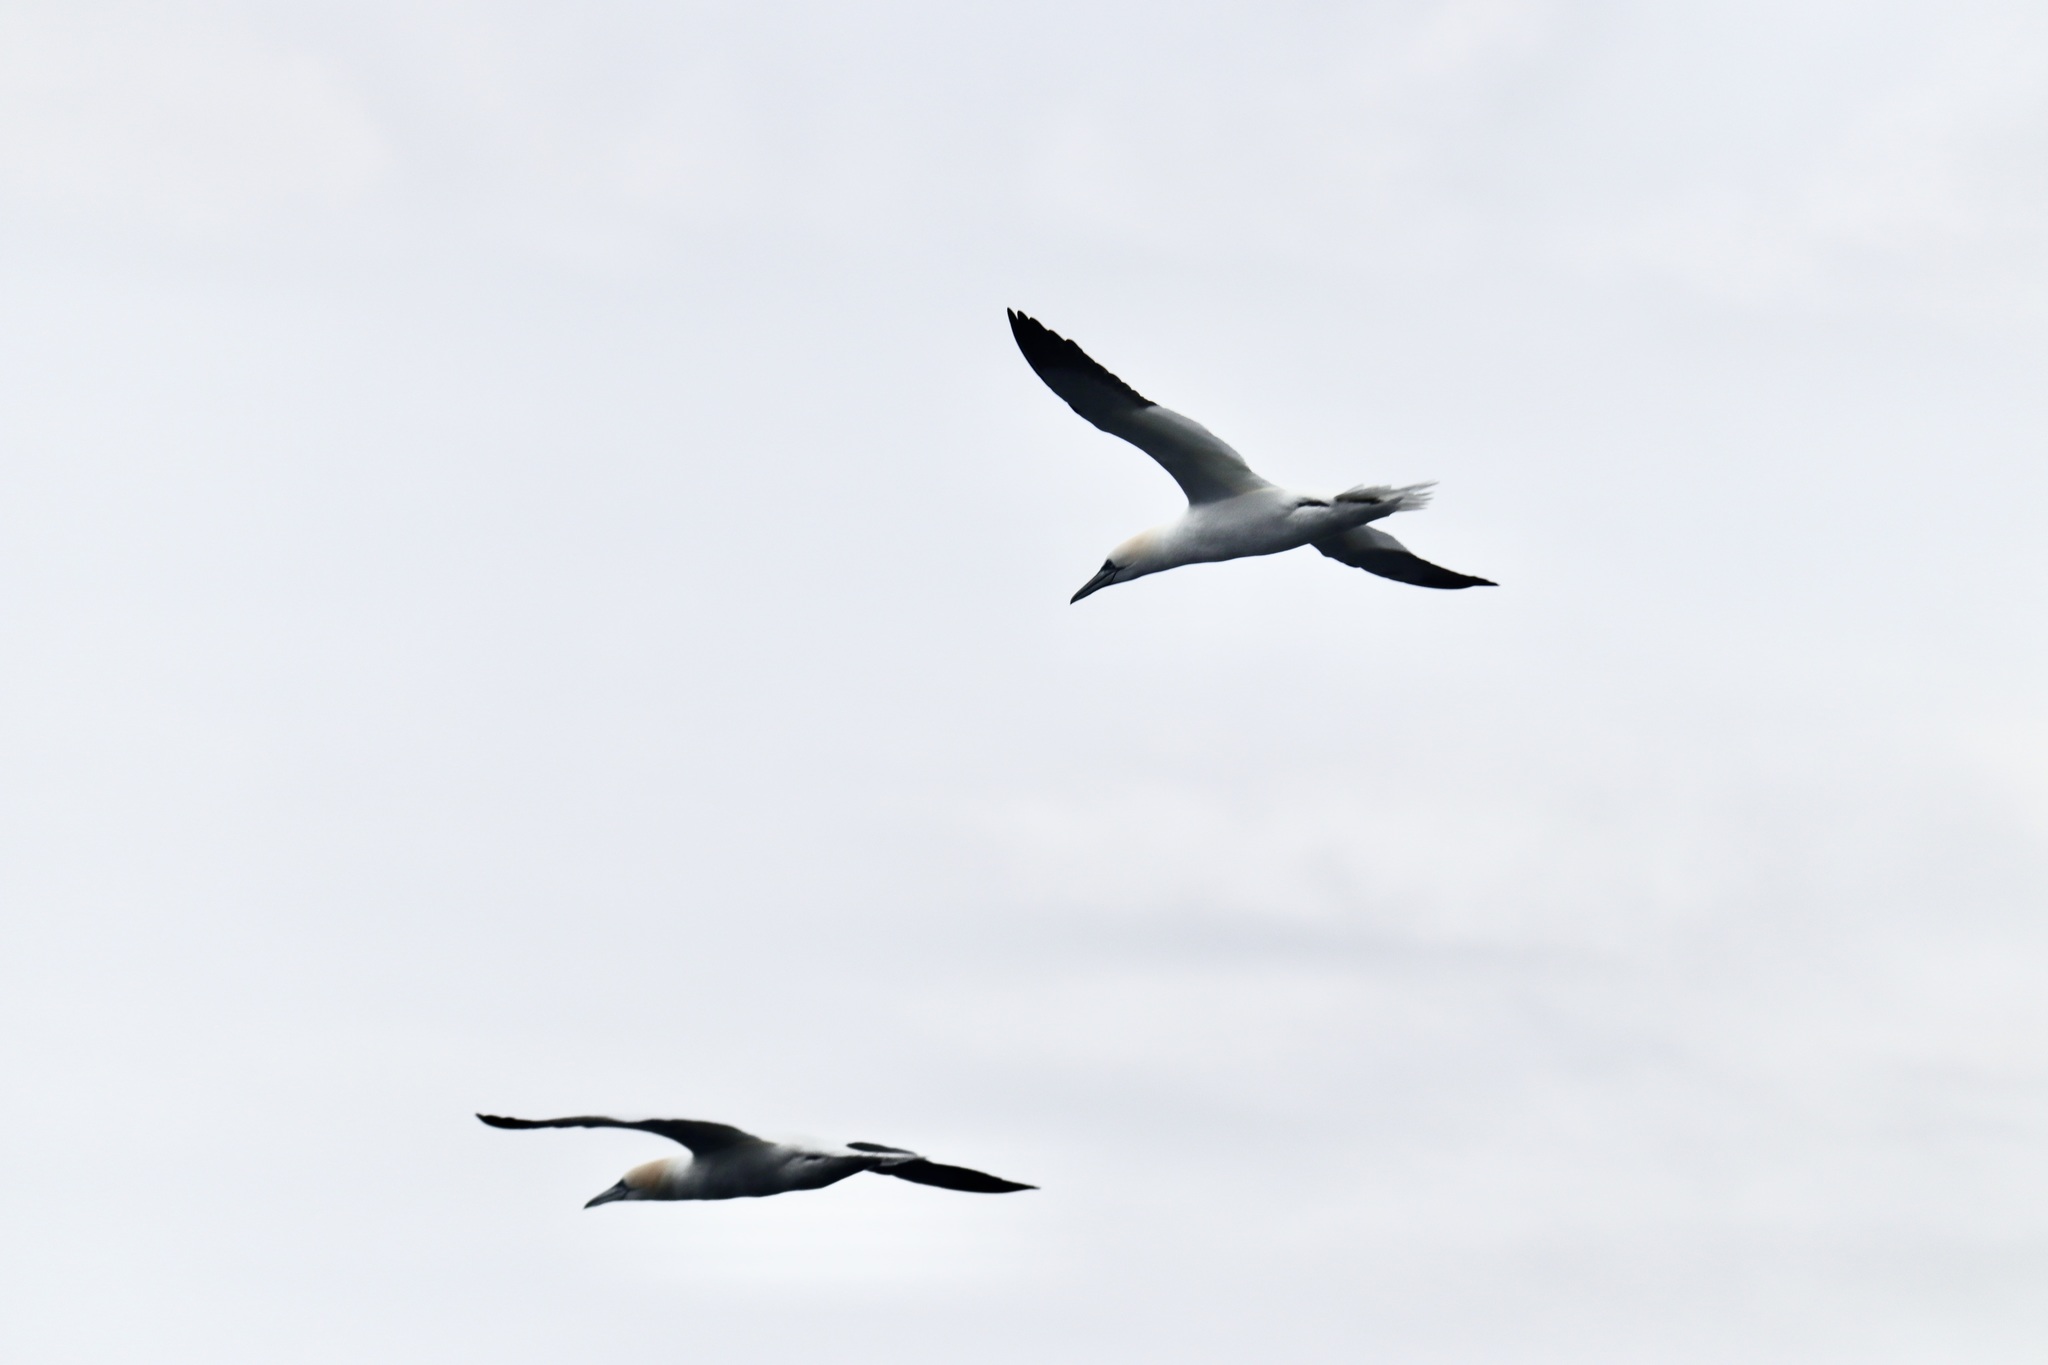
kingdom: Animalia
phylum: Chordata
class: Aves
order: Suliformes
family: Sulidae
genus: Morus
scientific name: Morus bassanus
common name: Northern gannet
